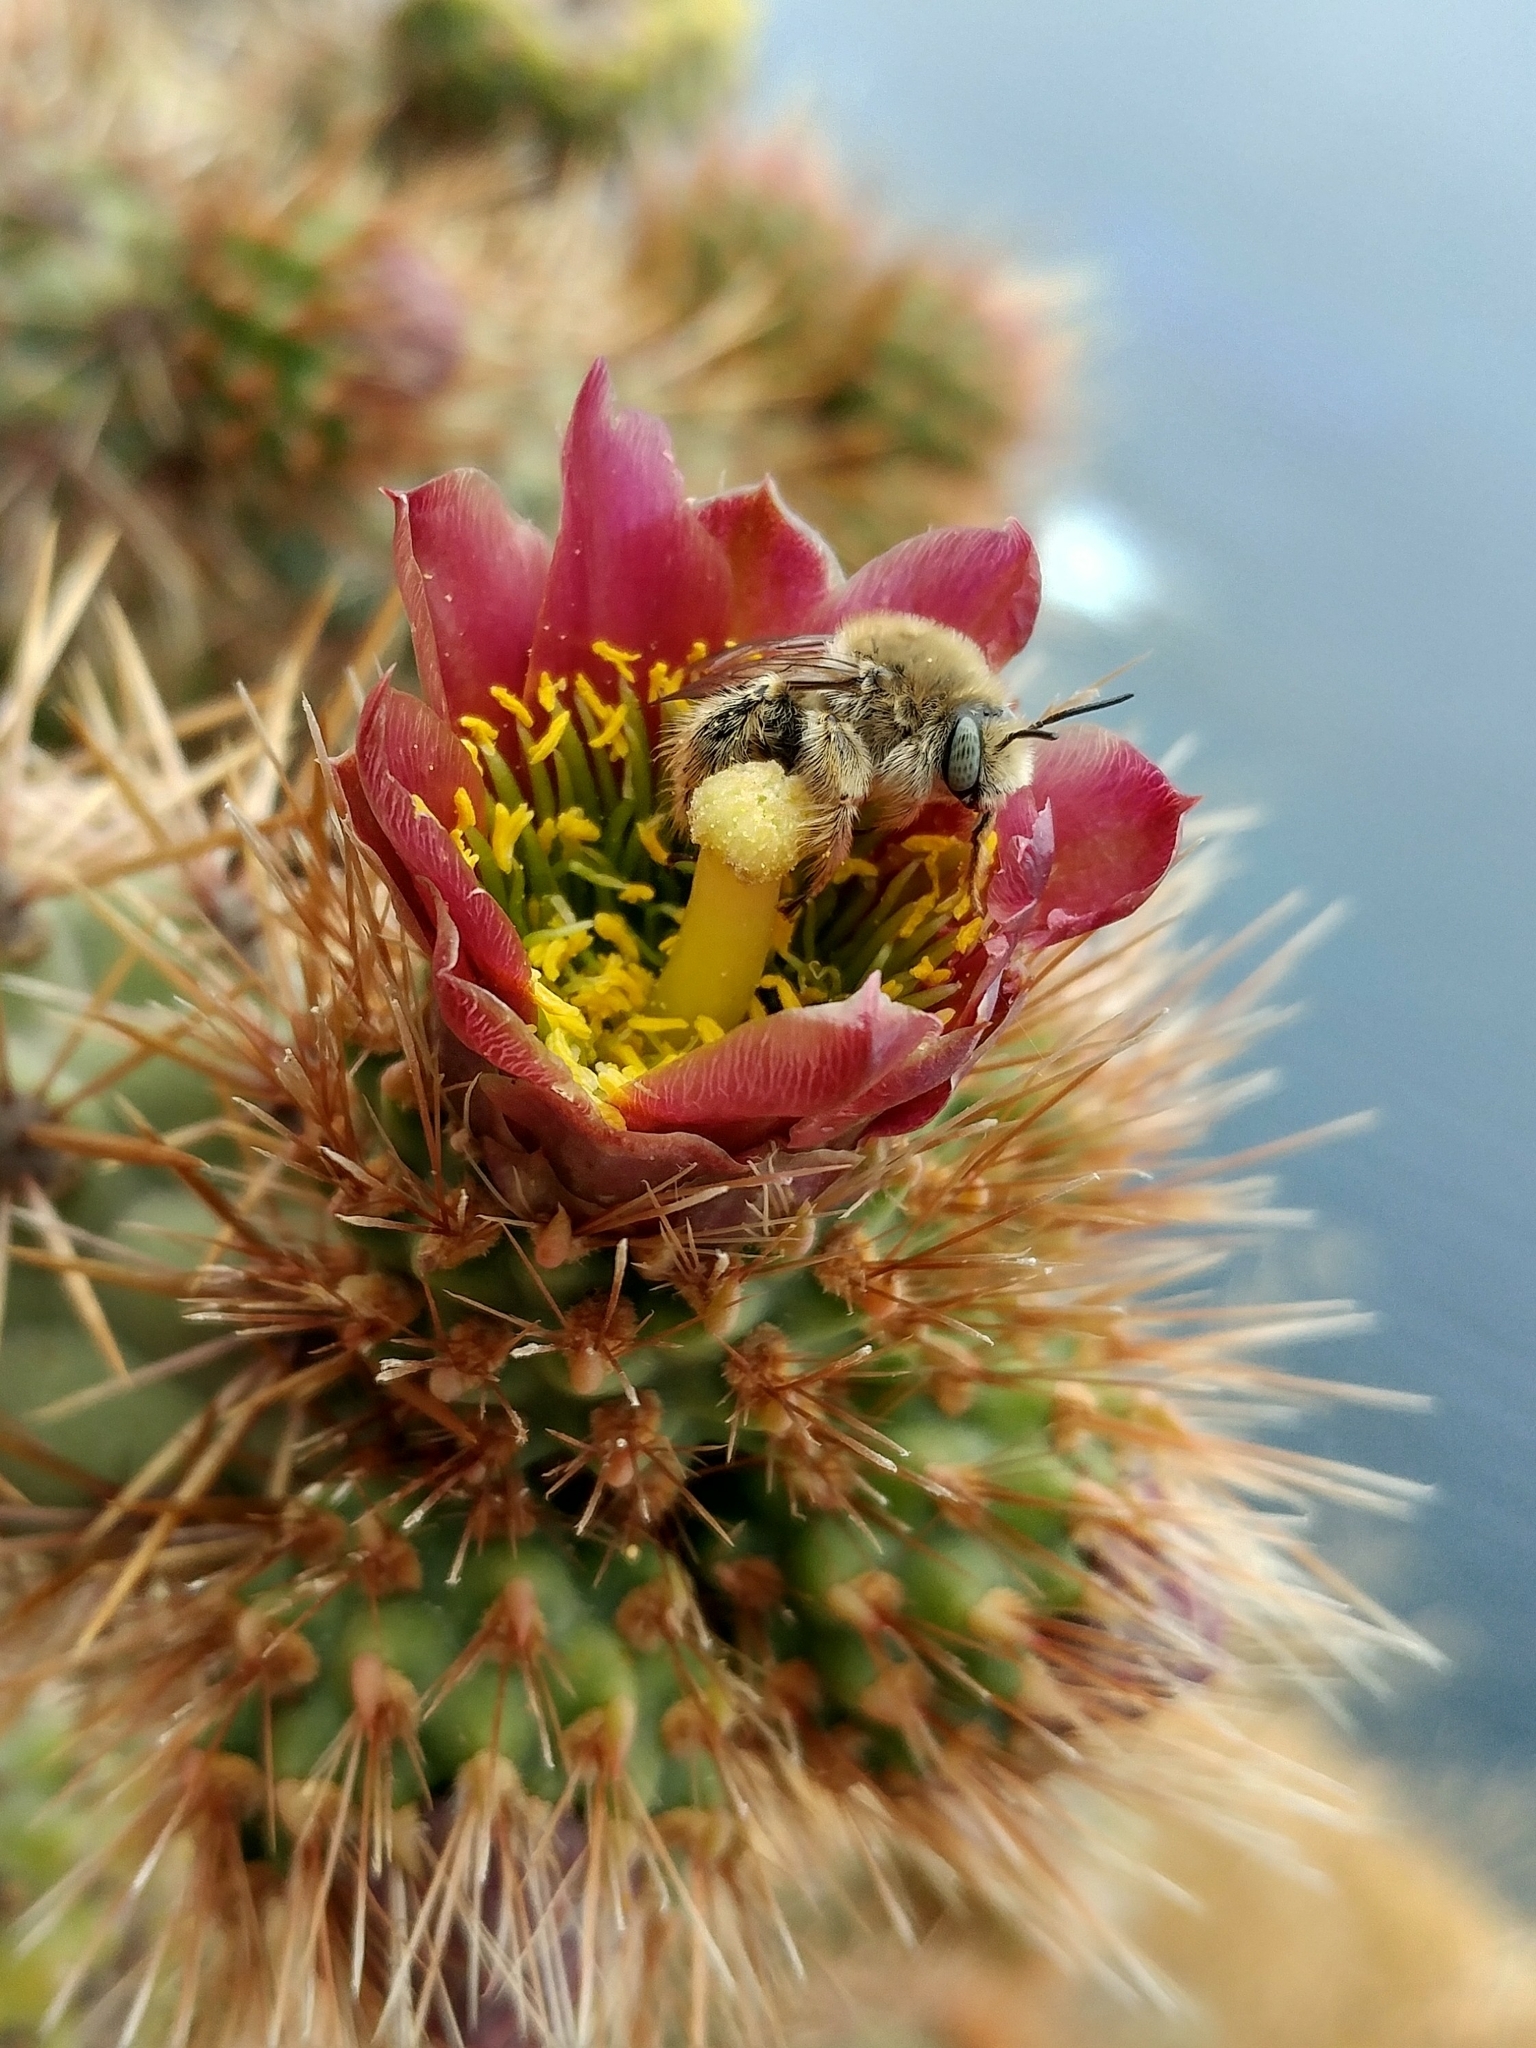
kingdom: Plantae
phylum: Tracheophyta
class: Magnoliopsida
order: Caryophyllales
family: Cactaceae
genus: Cylindropuntia
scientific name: Cylindropuntia prolifera
